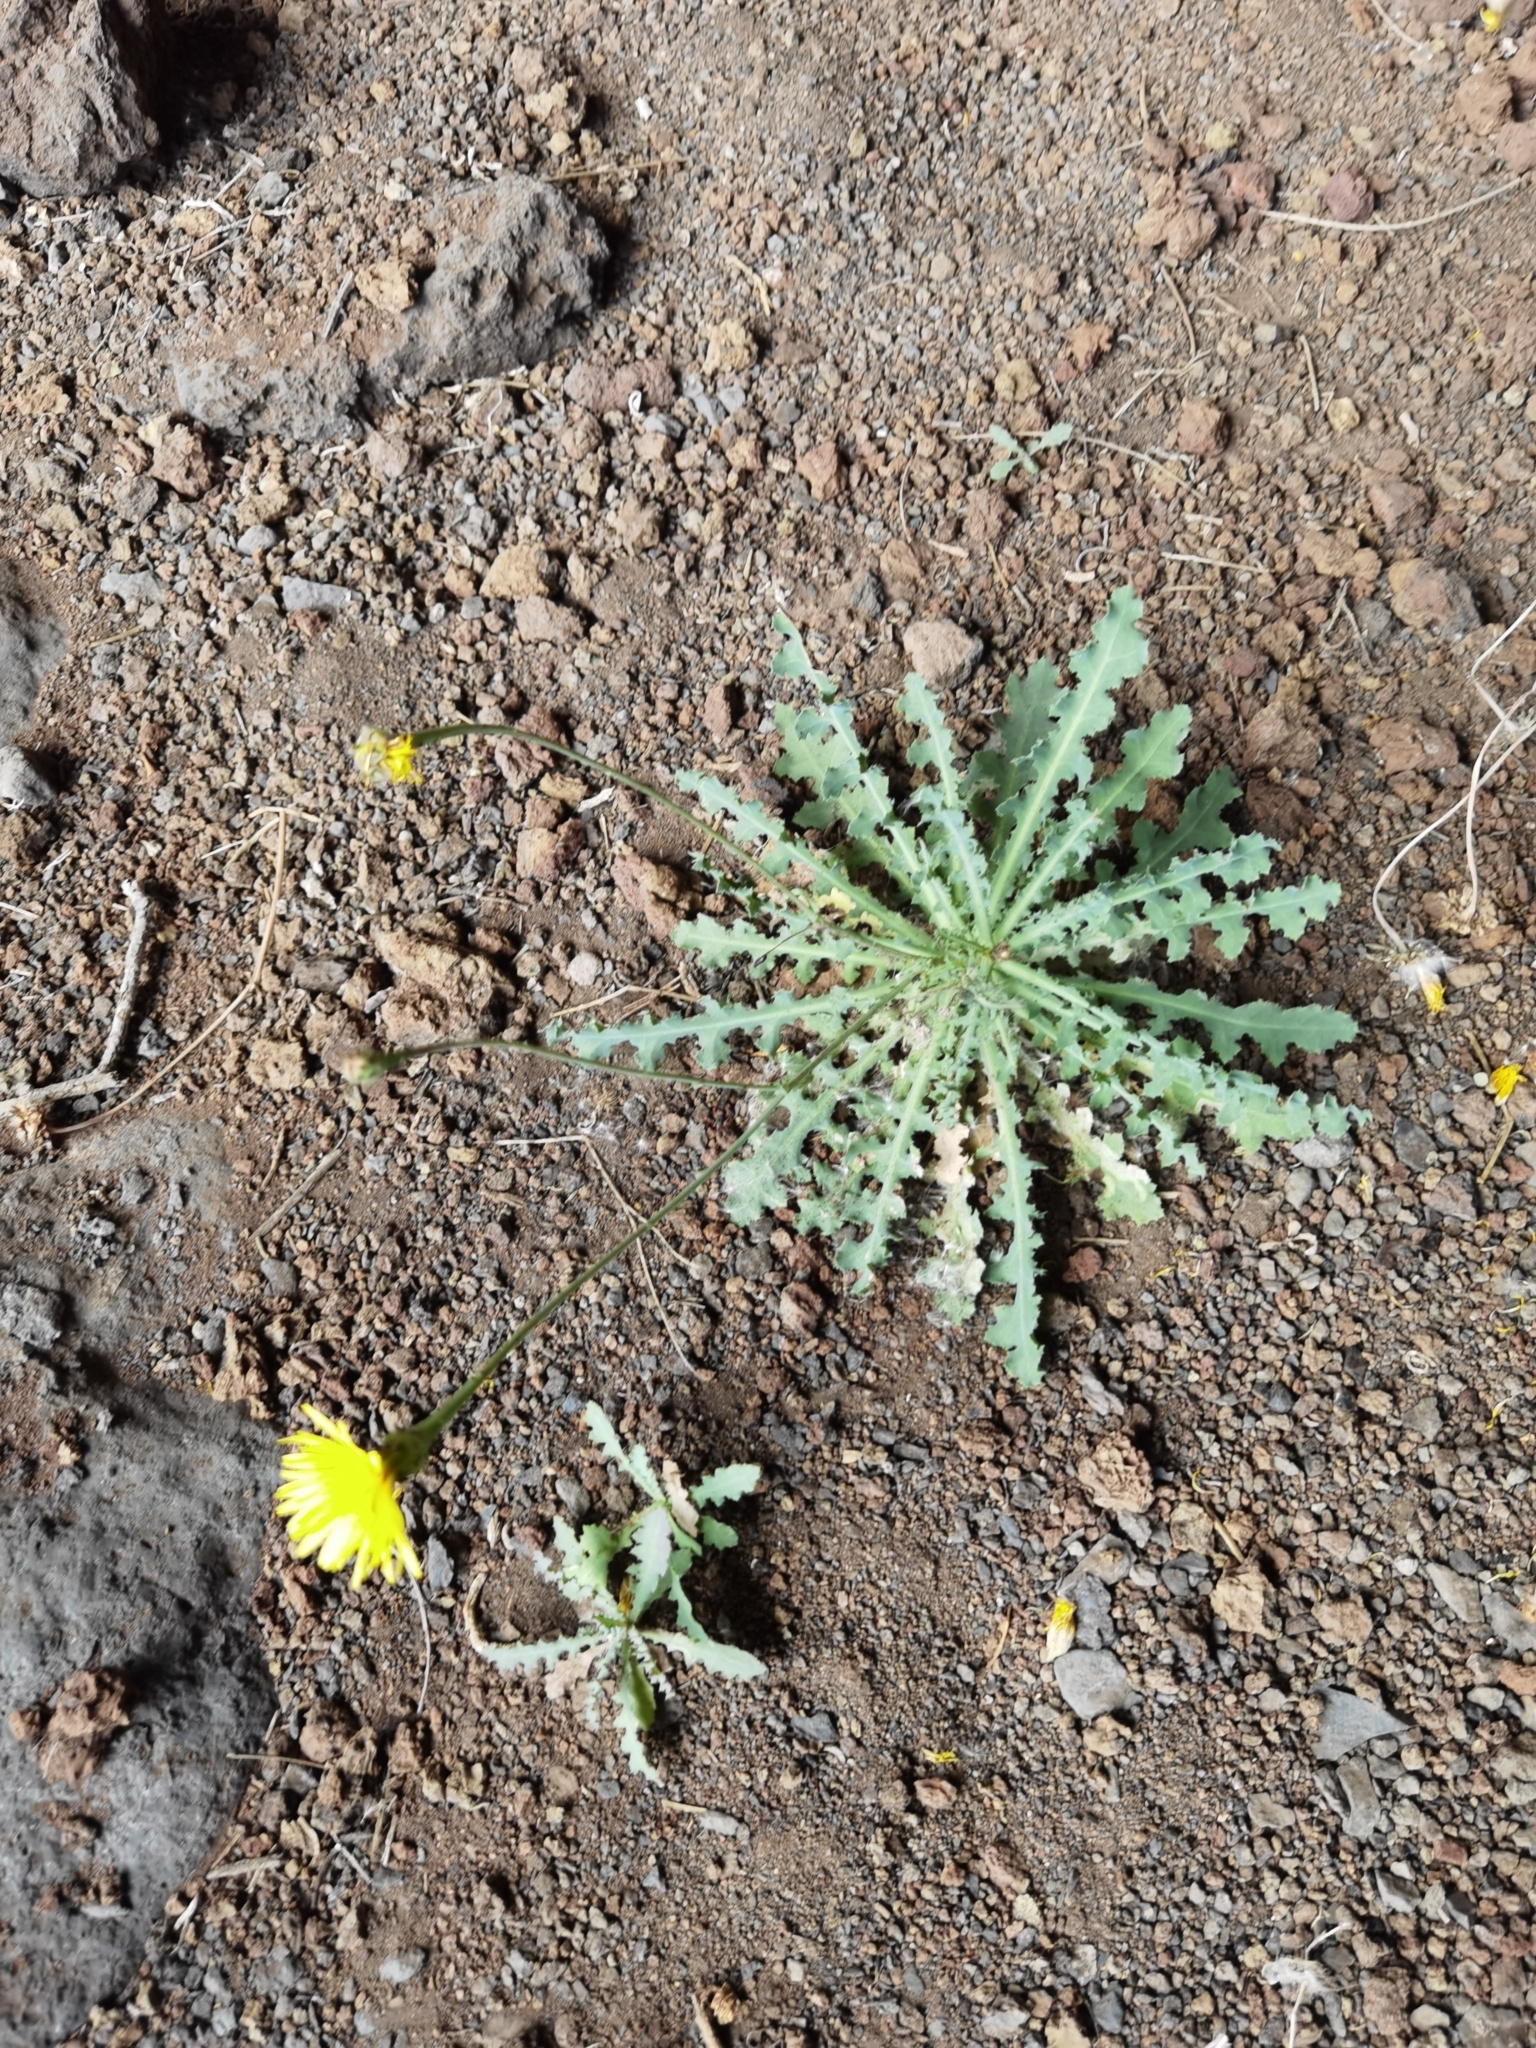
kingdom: Plantae
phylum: Tracheophyta
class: Magnoliopsida
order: Asterales
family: Asteraceae
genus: Reichardia
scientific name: Reichardia ligulata
